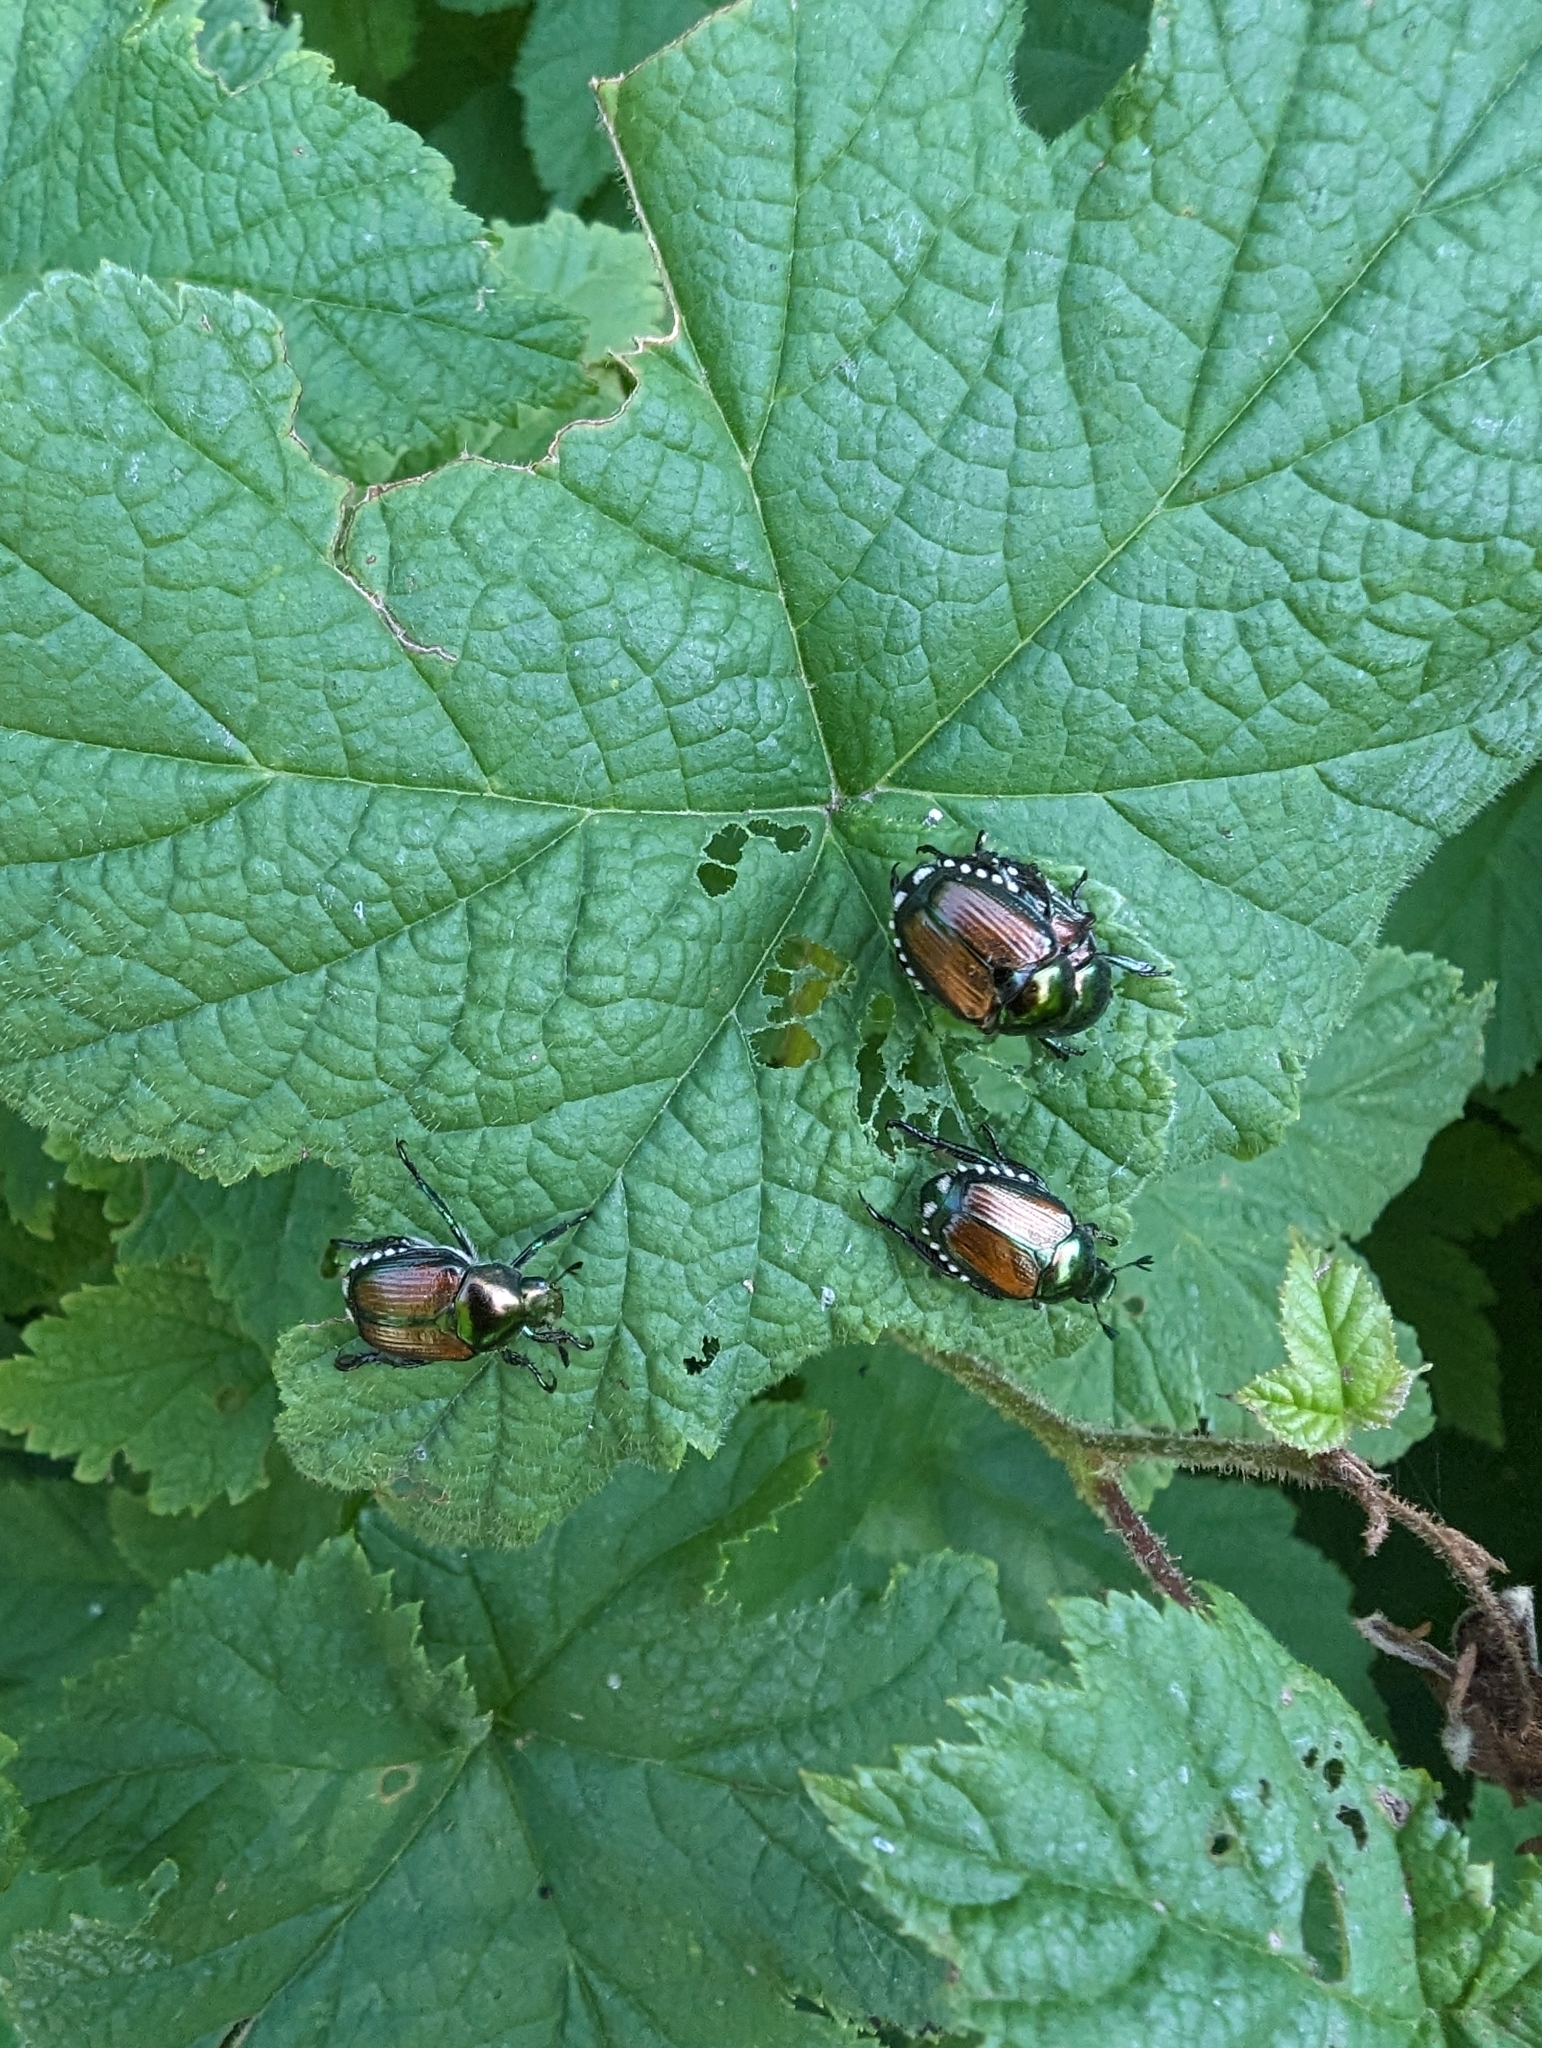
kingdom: Animalia
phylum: Arthropoda
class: Insecta
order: Coleoptera
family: Scarabaeidae
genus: Popillia
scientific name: Popillia japonica
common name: Japanese beetle
